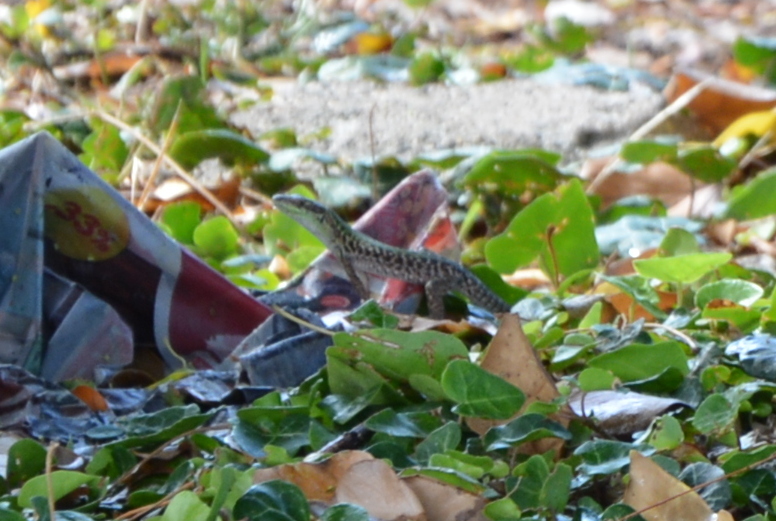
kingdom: Animalia
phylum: Chordata
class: Squamata
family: Lacertidae
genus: Podarcis
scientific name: Podarcis siculus
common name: Italian wall lizard
